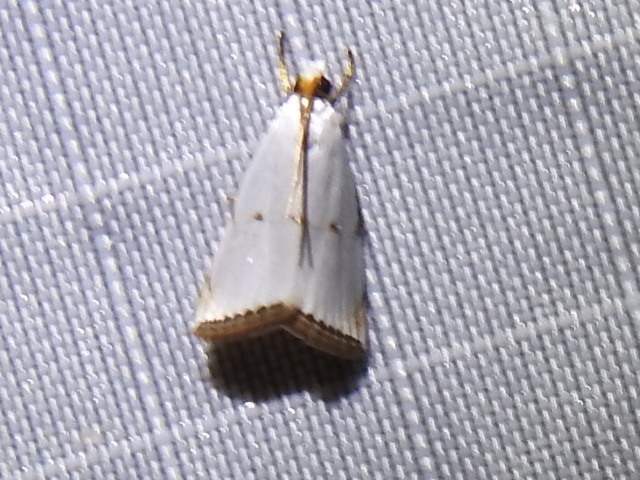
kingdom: Animalia
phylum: Arthropoda
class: Insecta
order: Lepidoptera
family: Crambidae
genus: Argyria
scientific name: Argyria pusillalis
